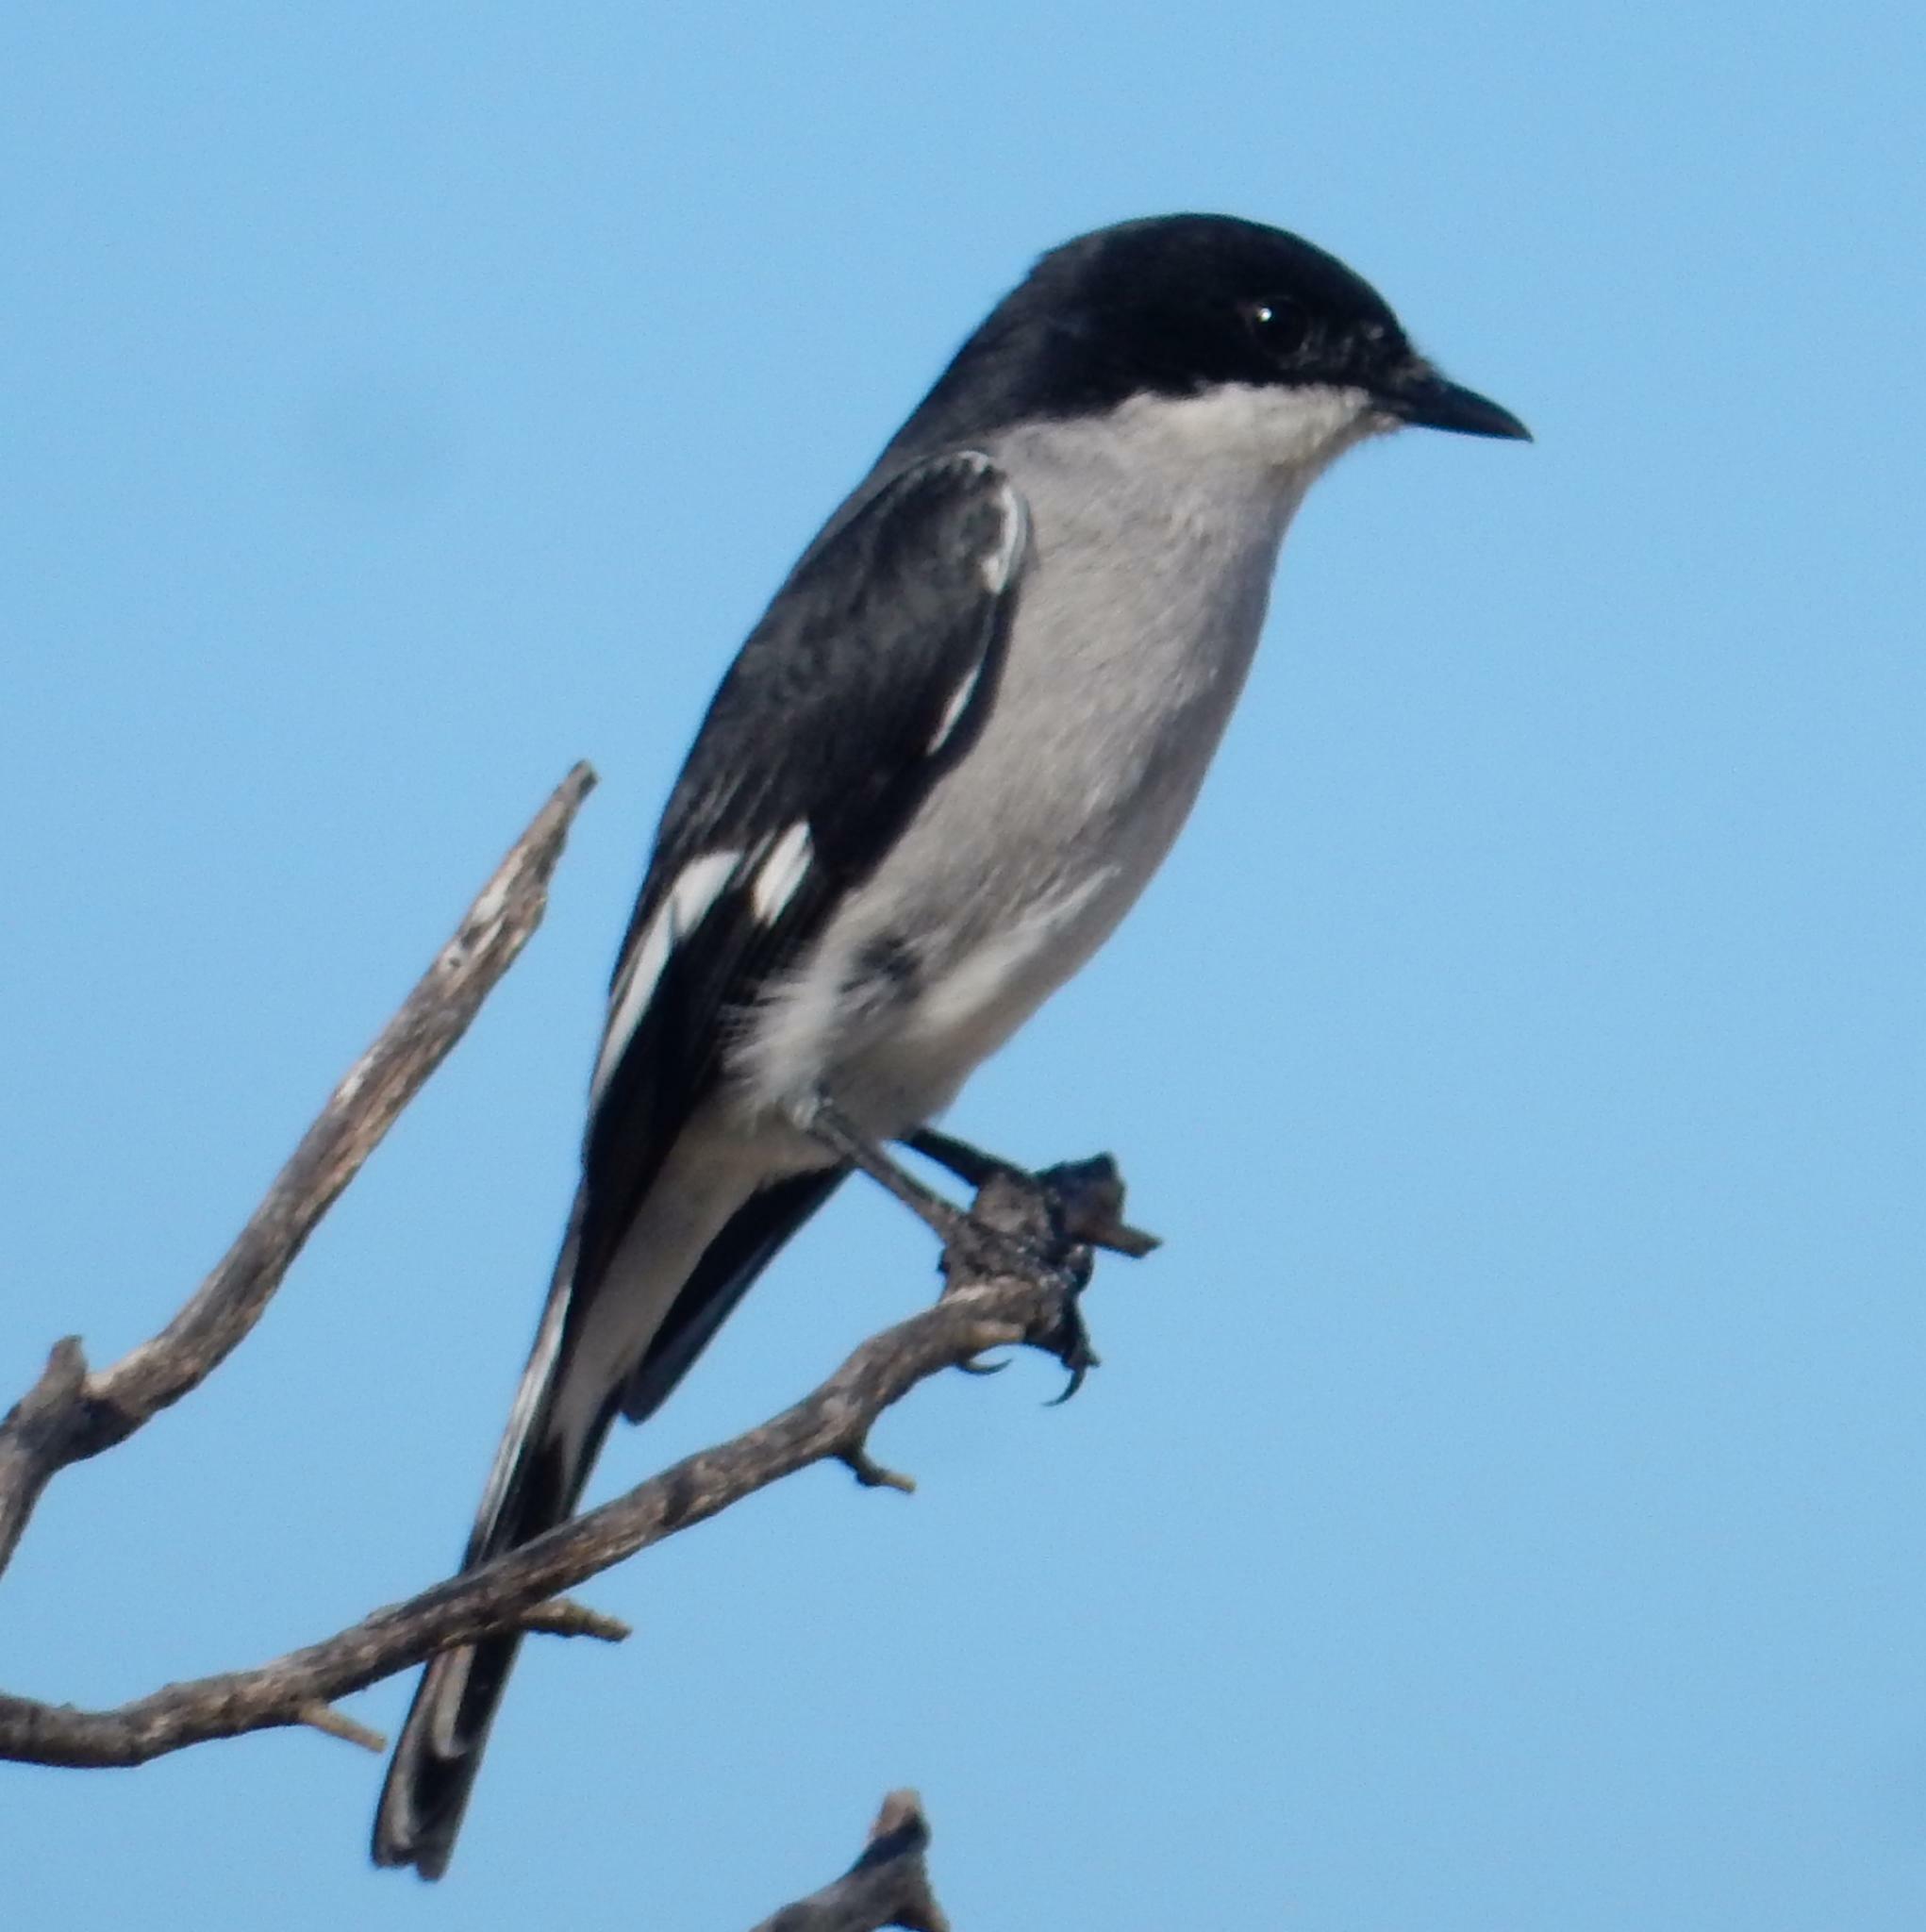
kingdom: Animalia
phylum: Chordata
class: Aves
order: Passeriformes
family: Muscicapidae
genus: Sigelus
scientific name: Sigelus silens
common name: Fiscal flycatcher
